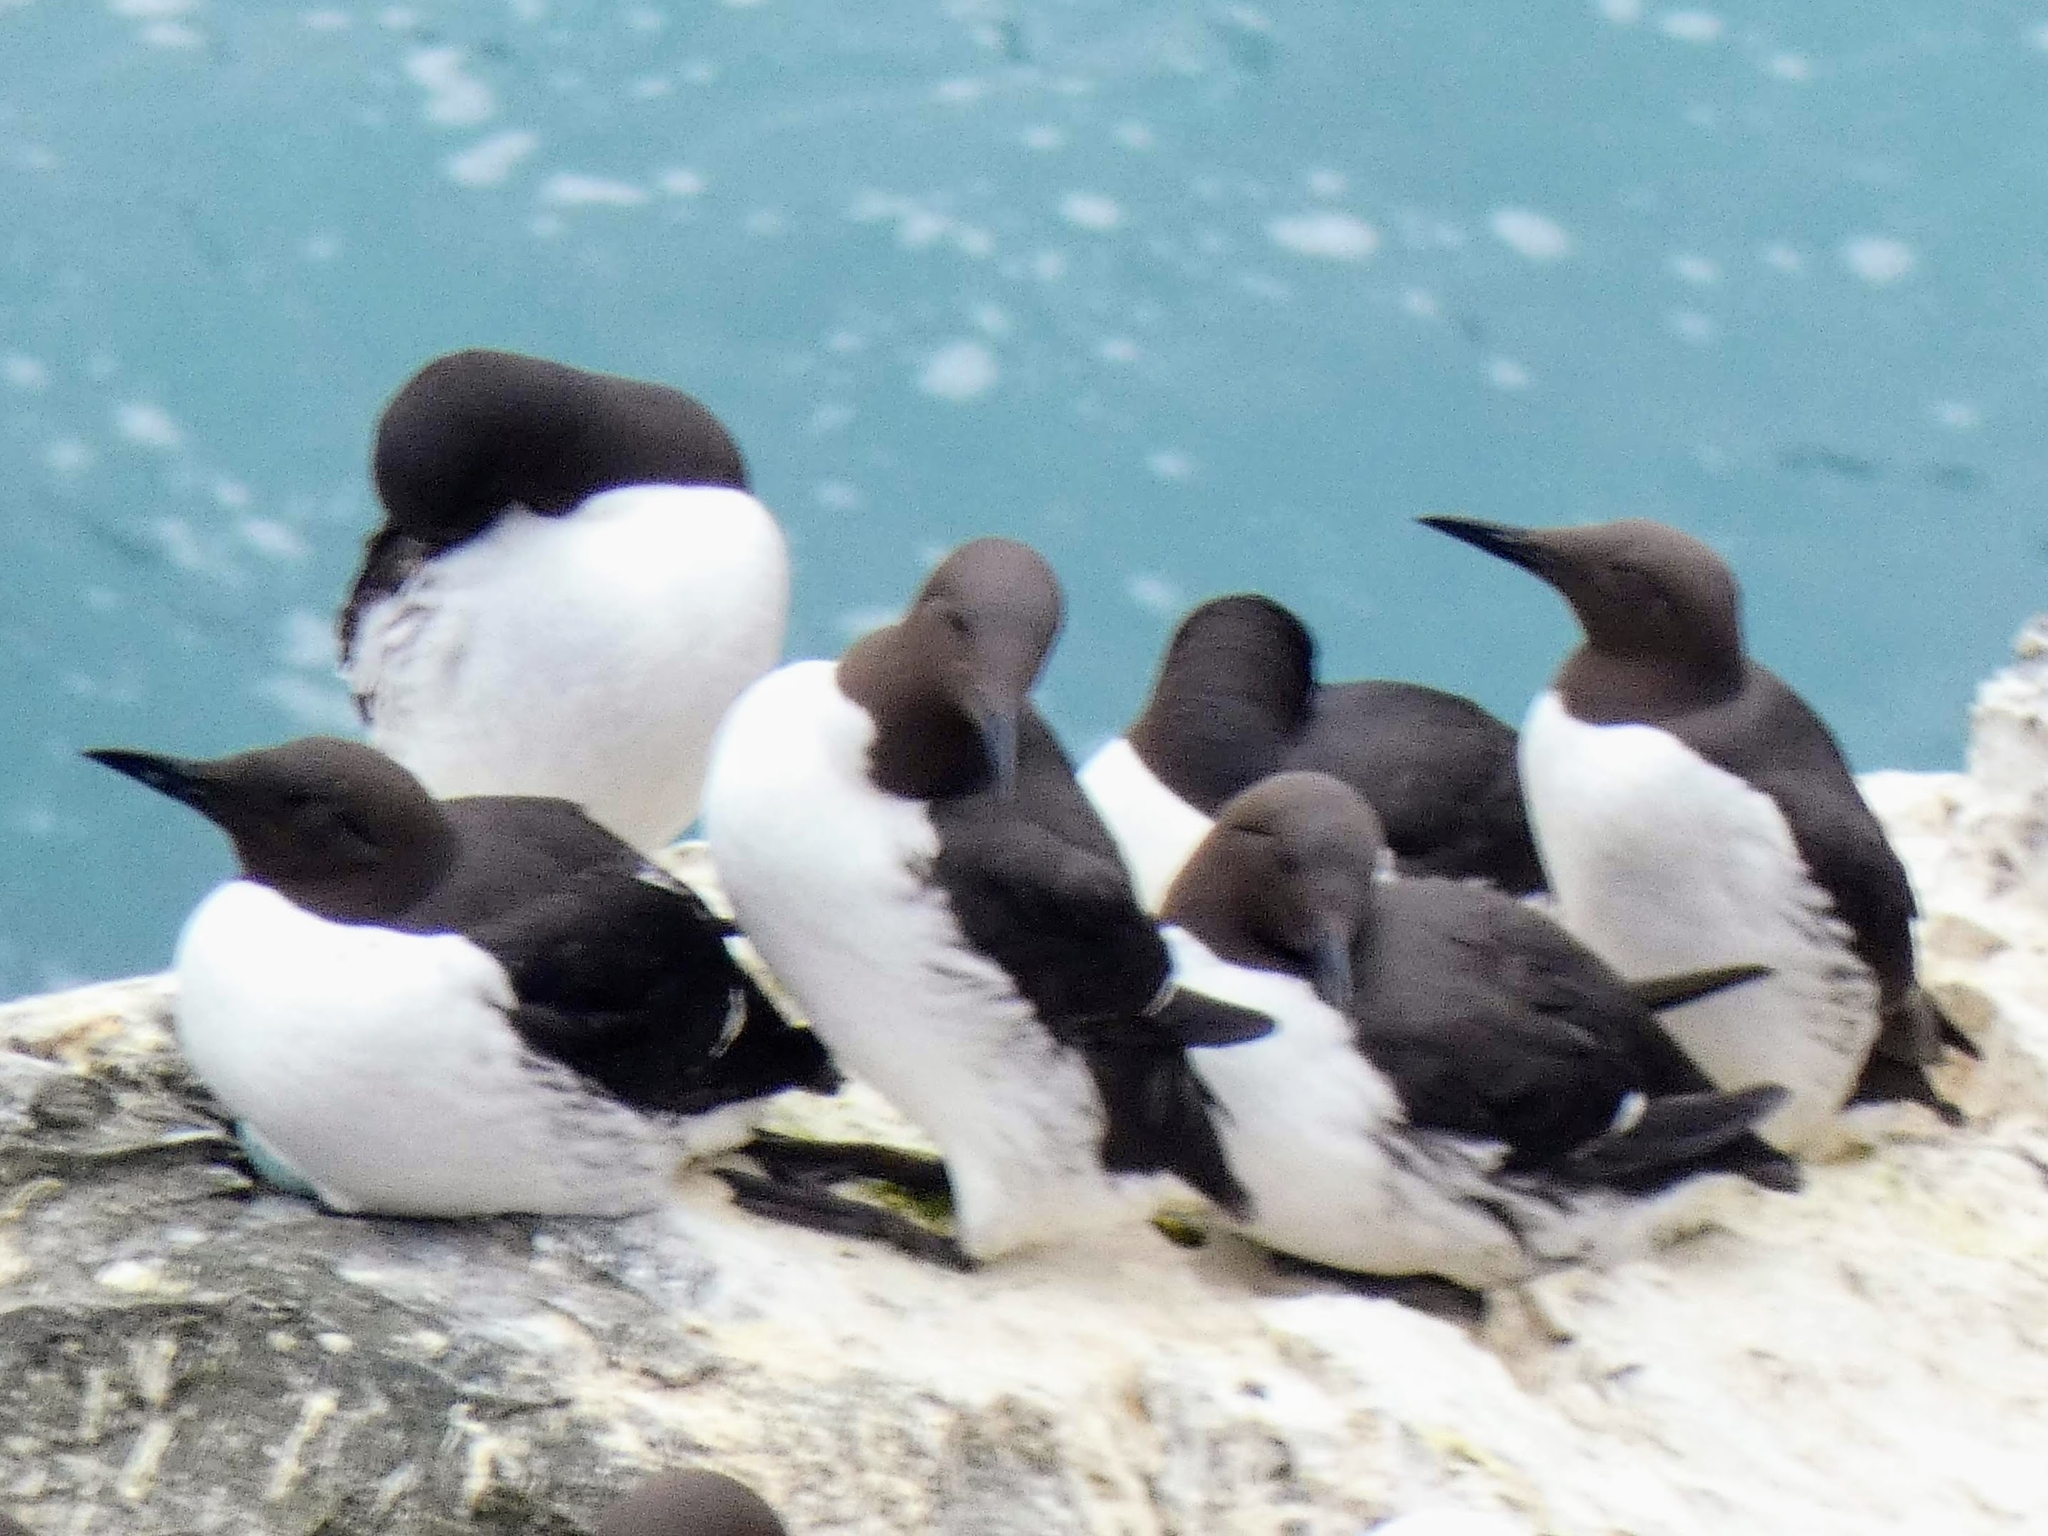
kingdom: Animalia
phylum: Chordata
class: Aves
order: Charadriiformes
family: Alcidae
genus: Uria
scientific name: Uria aalge
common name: Common murre
